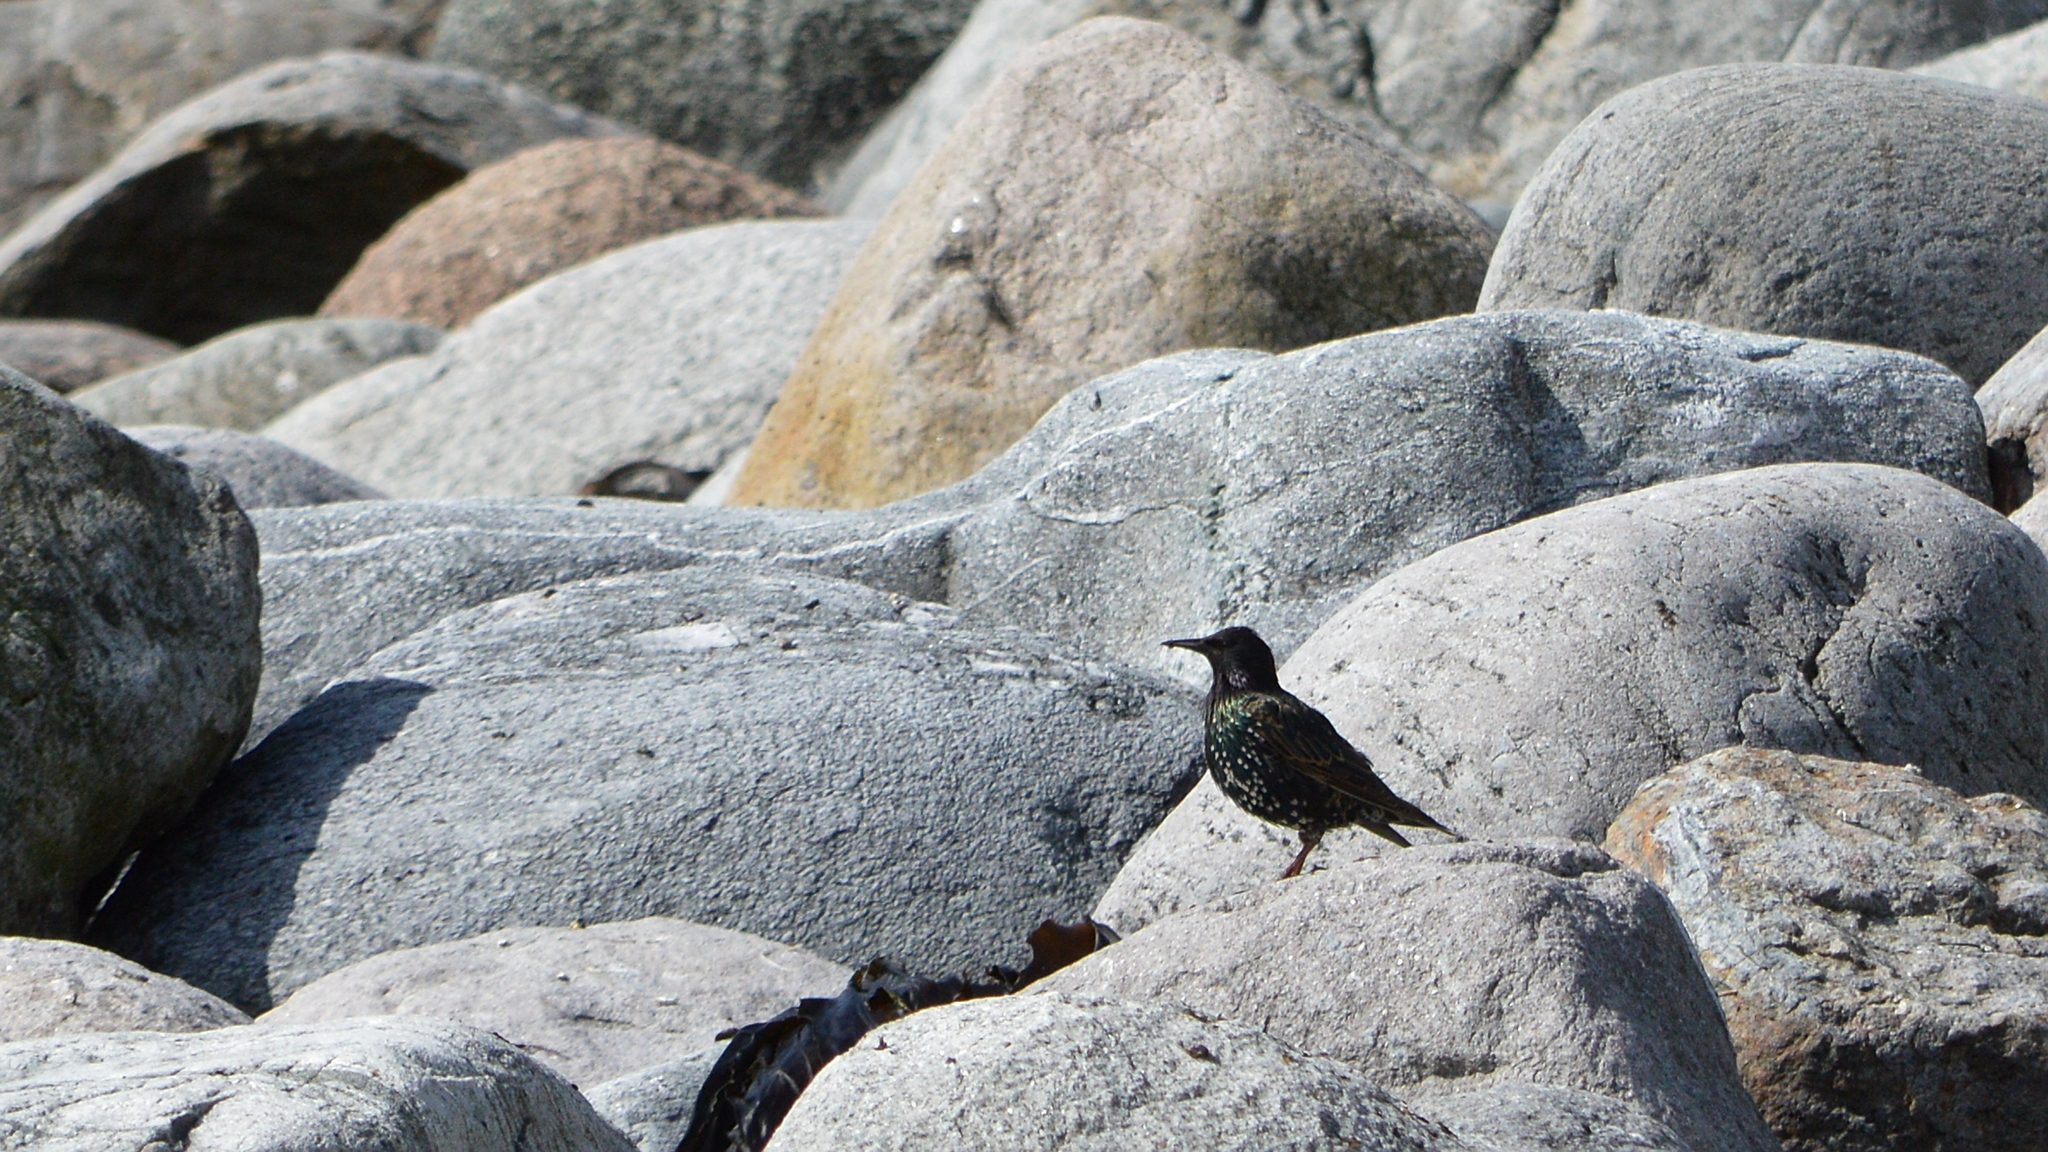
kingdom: Animalia
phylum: Chordata
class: Aves
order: Passeriformes
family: Sturnidae
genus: Sturnus
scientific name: Sturnus vulgaris
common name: Common starling
